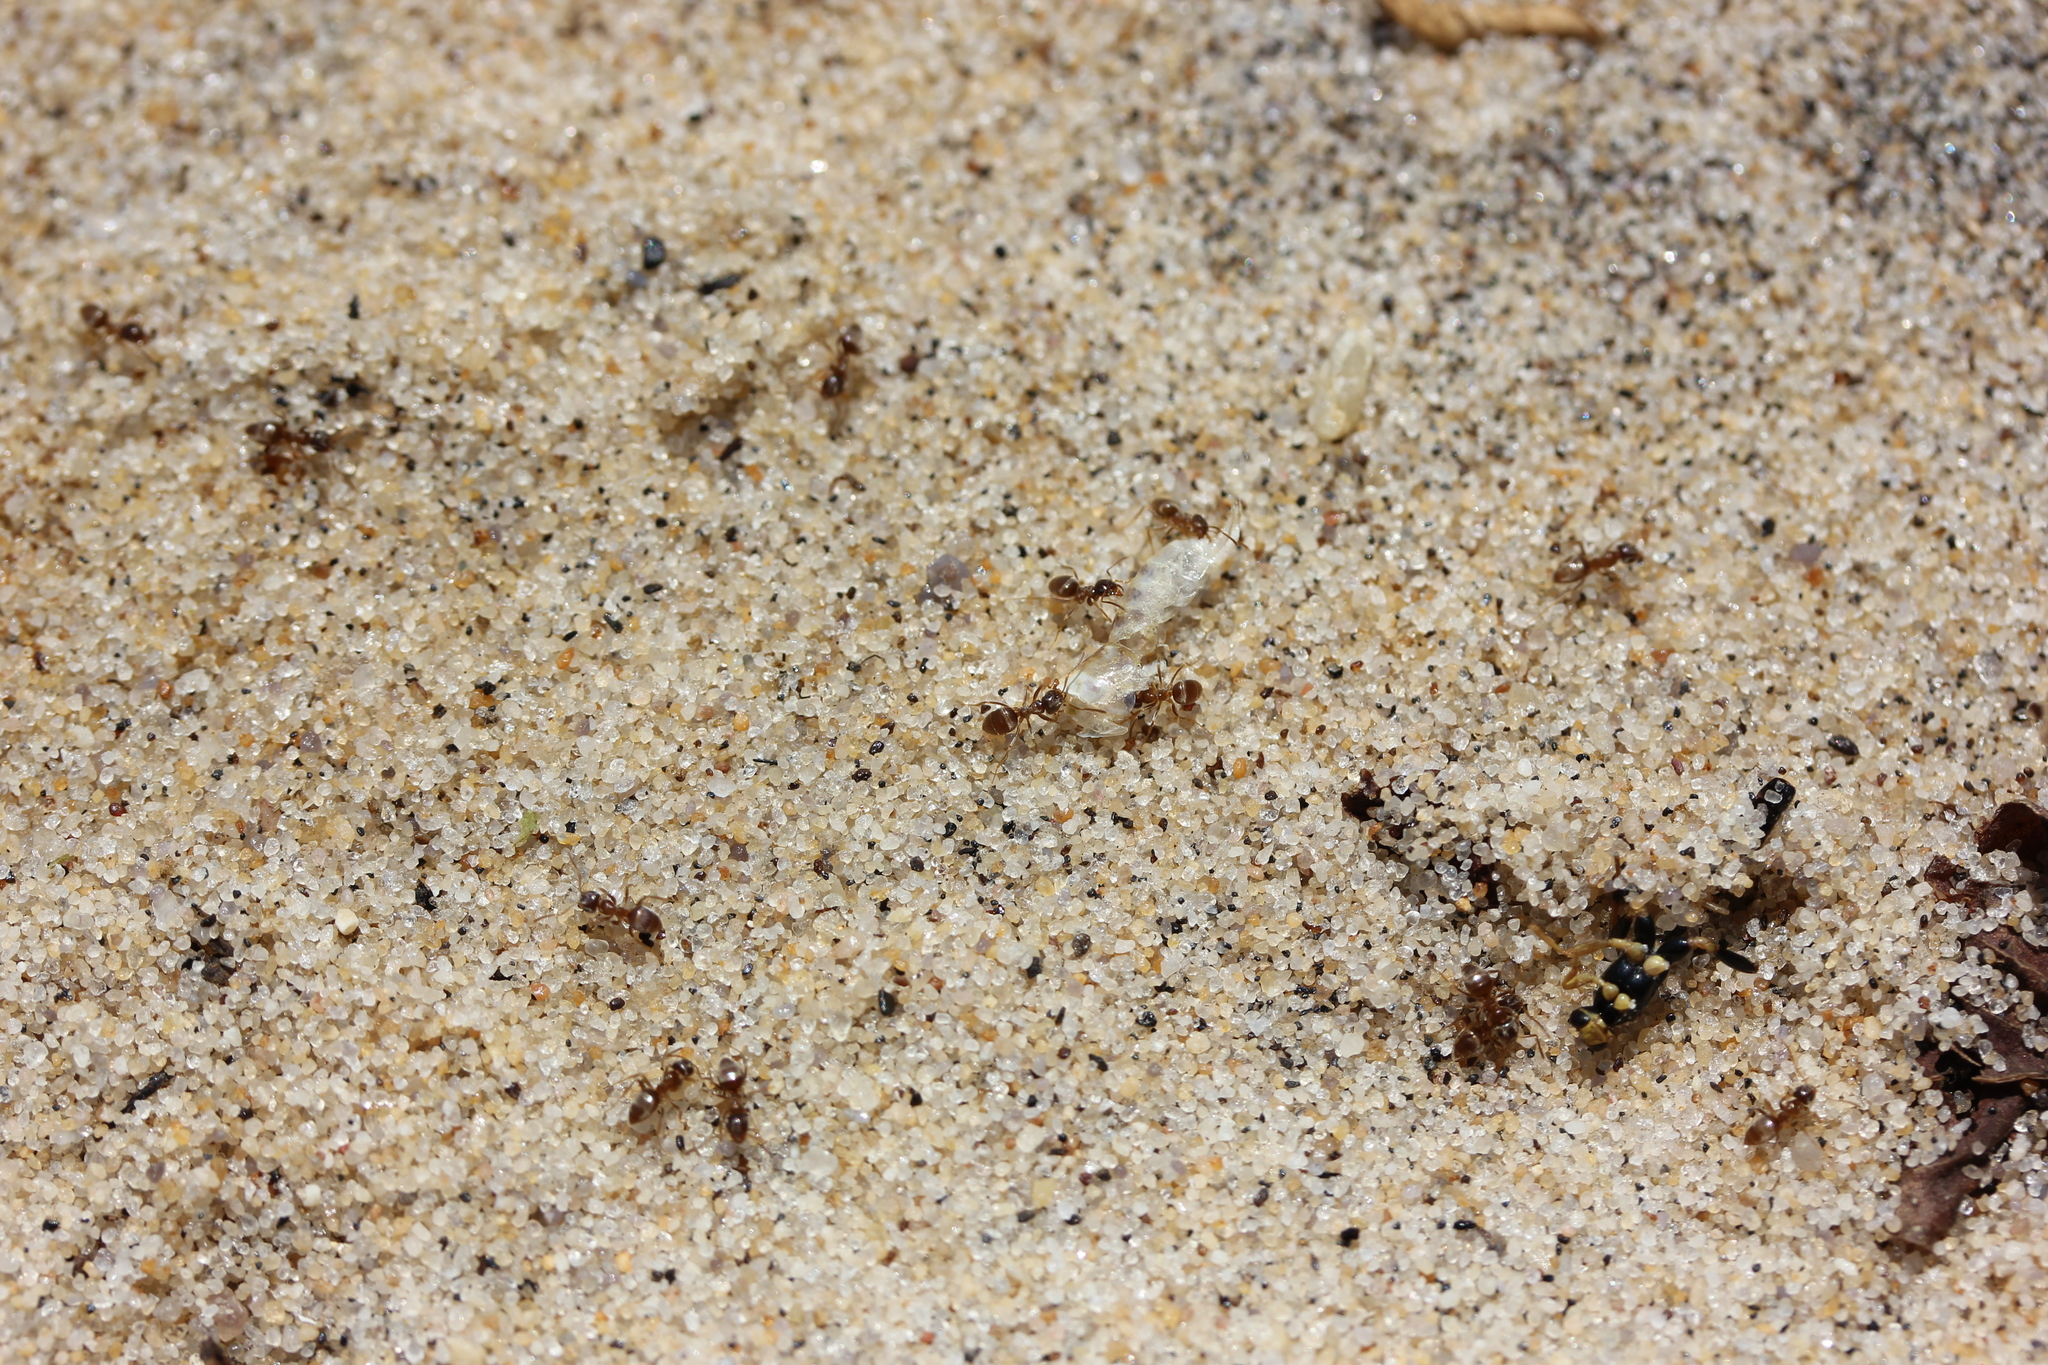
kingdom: Animalia
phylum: Arthropoda
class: Insecta
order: Hymenoptera
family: Formicidae
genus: Lasius
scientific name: Lasius neoniger
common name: Turfgrass ant
